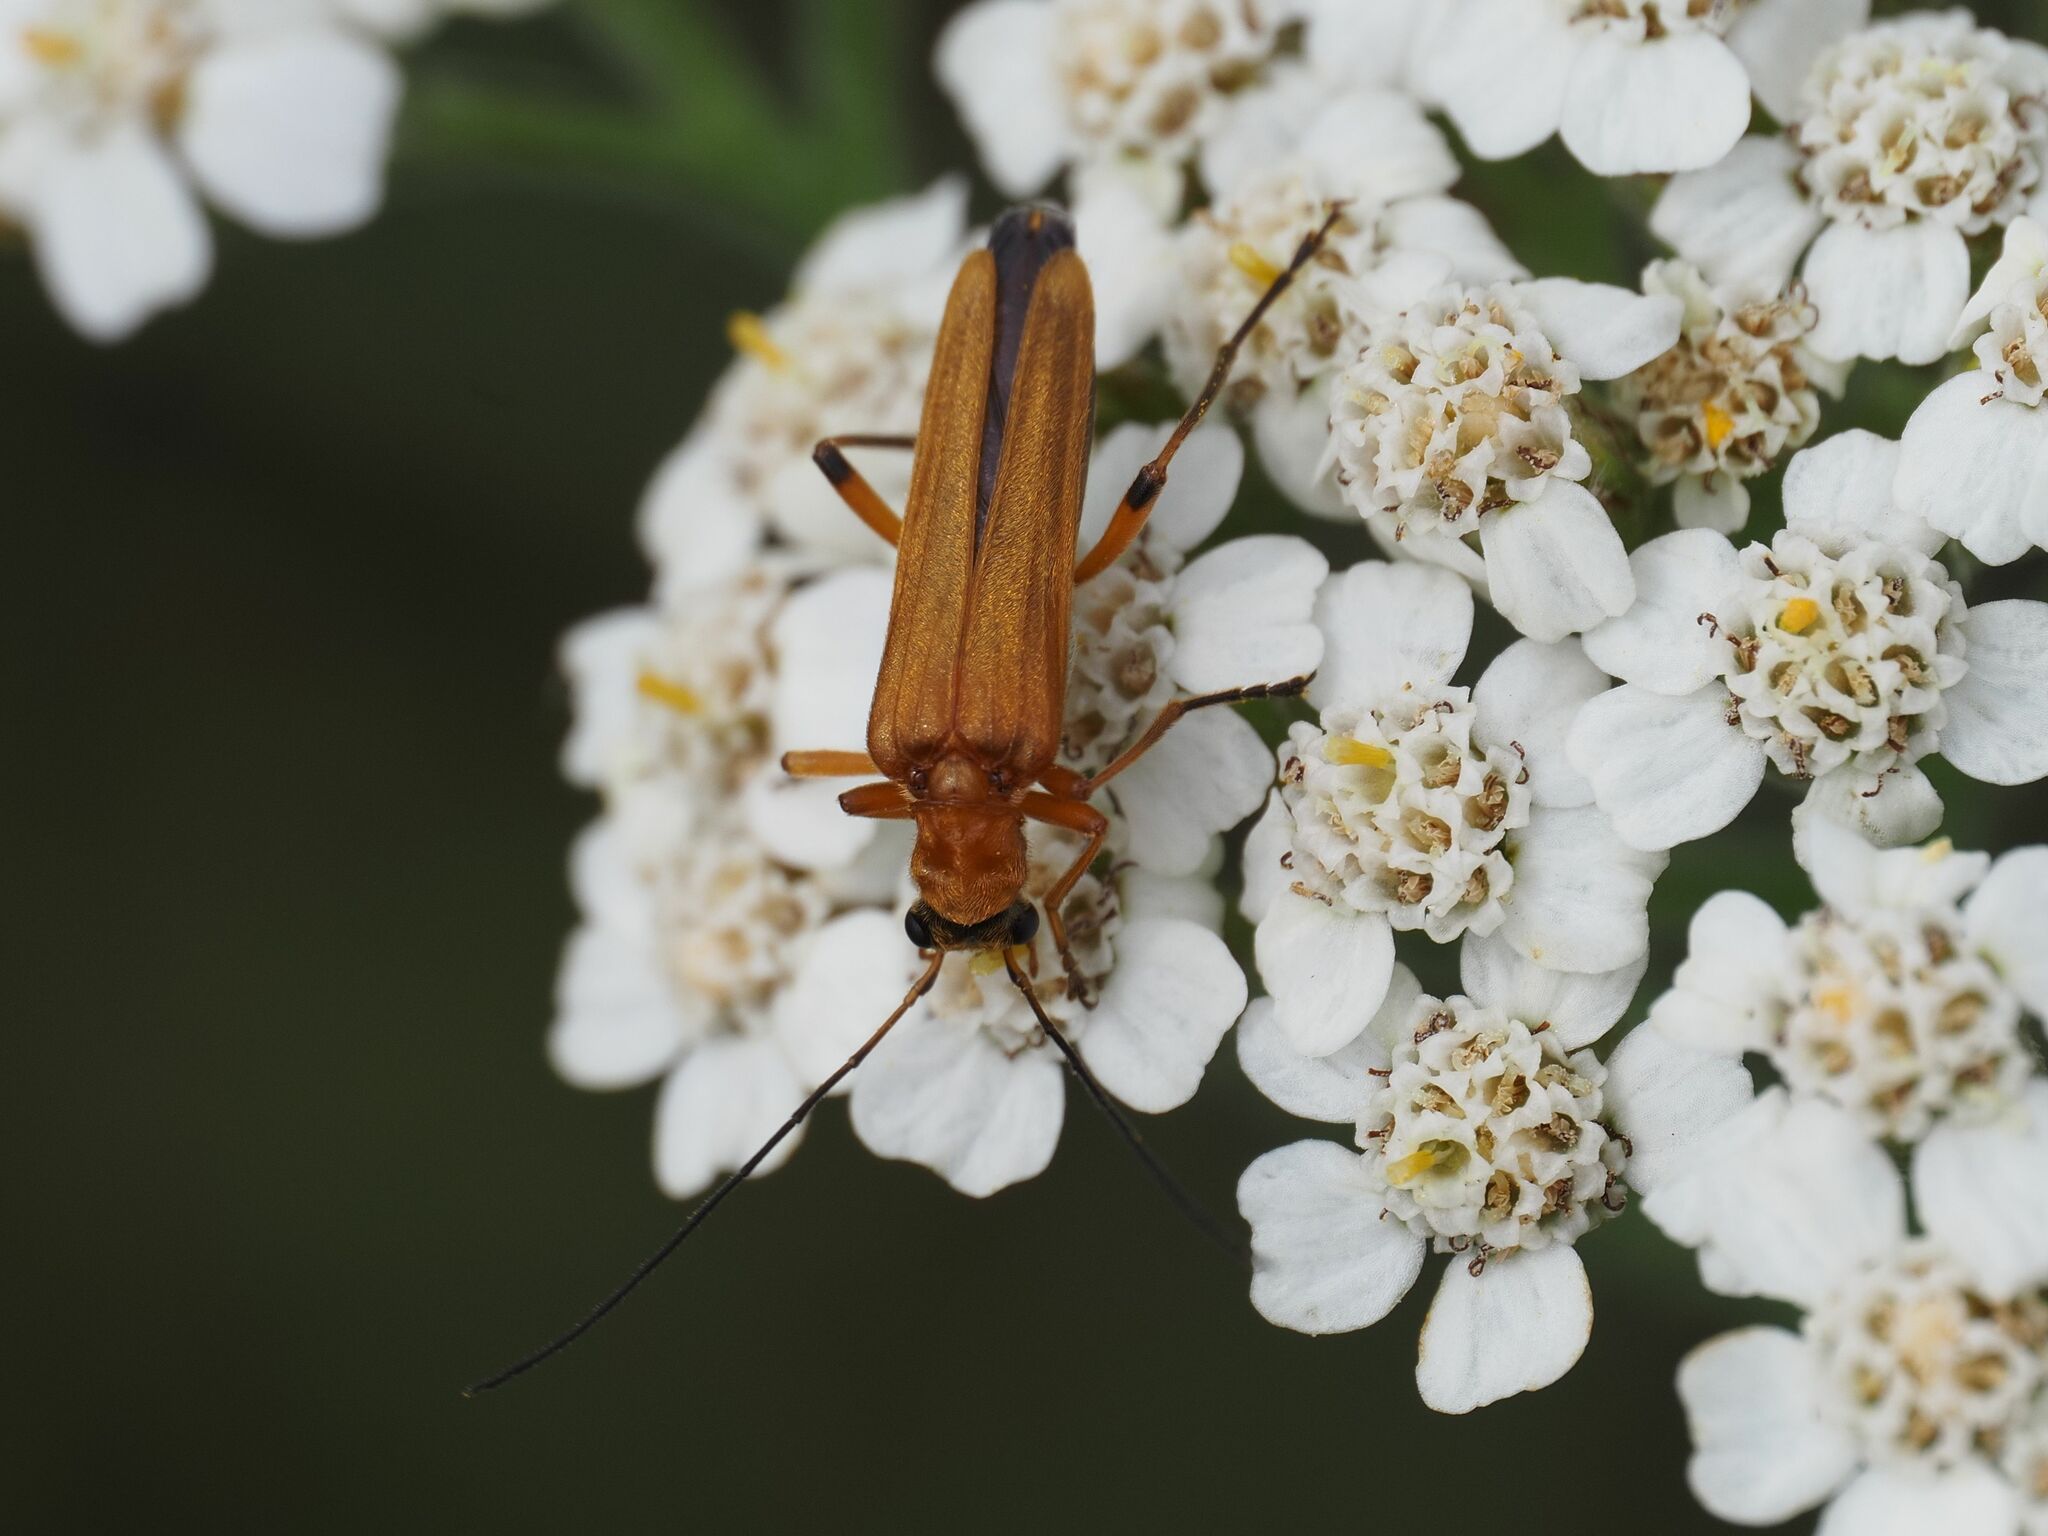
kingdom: Animalia
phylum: Arthropoda
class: Insecta
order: Coleoptera
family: Oedemeridae
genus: Oedemera
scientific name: Oedemera podagrariae
